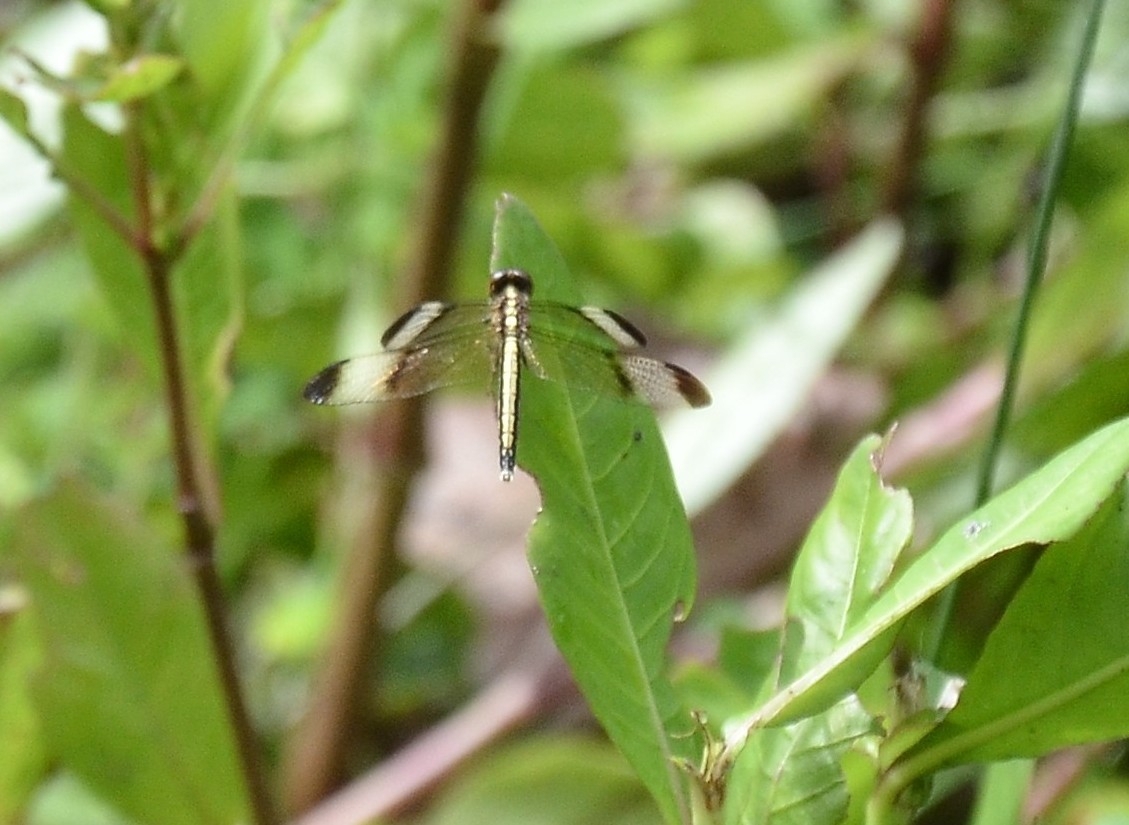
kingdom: Animalia
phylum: Arthropoda
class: Insecta
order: Odonata
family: Libellulidae
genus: Neurothemis
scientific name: Neurothemis tullia
